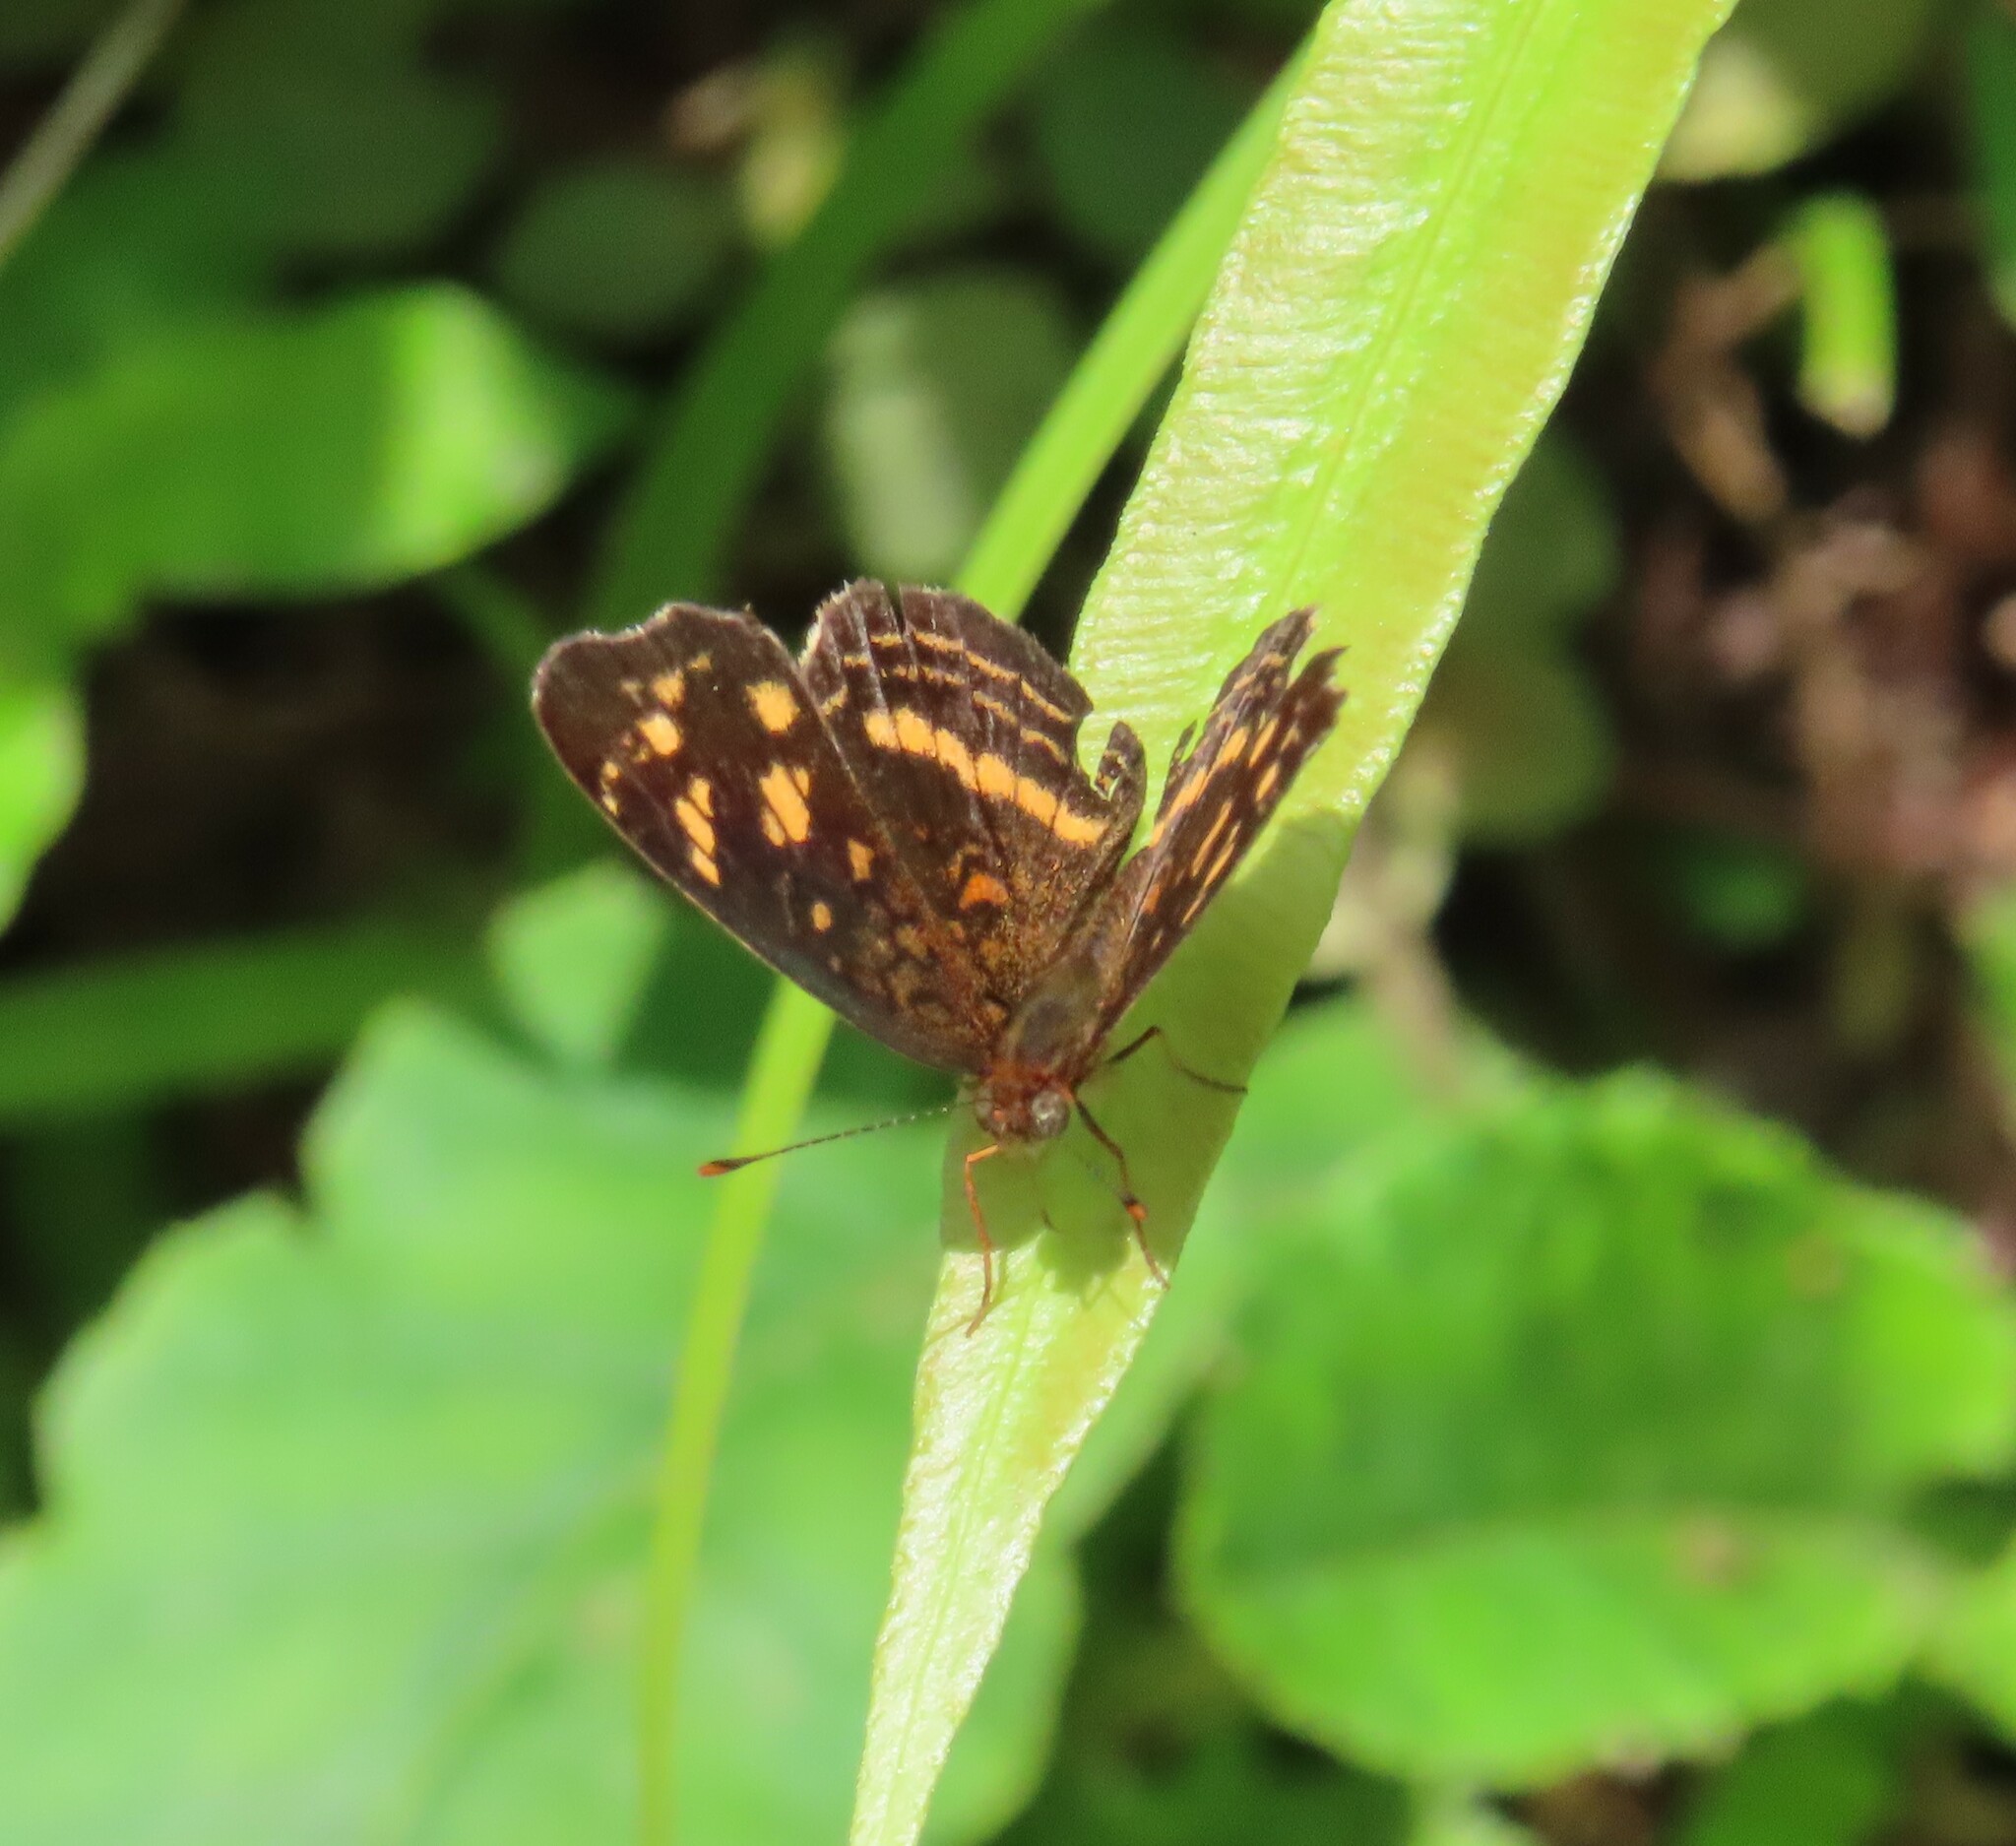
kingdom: Animalia
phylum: Arthropoda
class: Insecta
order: Lepidoptera
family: Nymphalidae
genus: Anthanassa
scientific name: Anthanassa drusilla
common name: Orange-patched crescent
